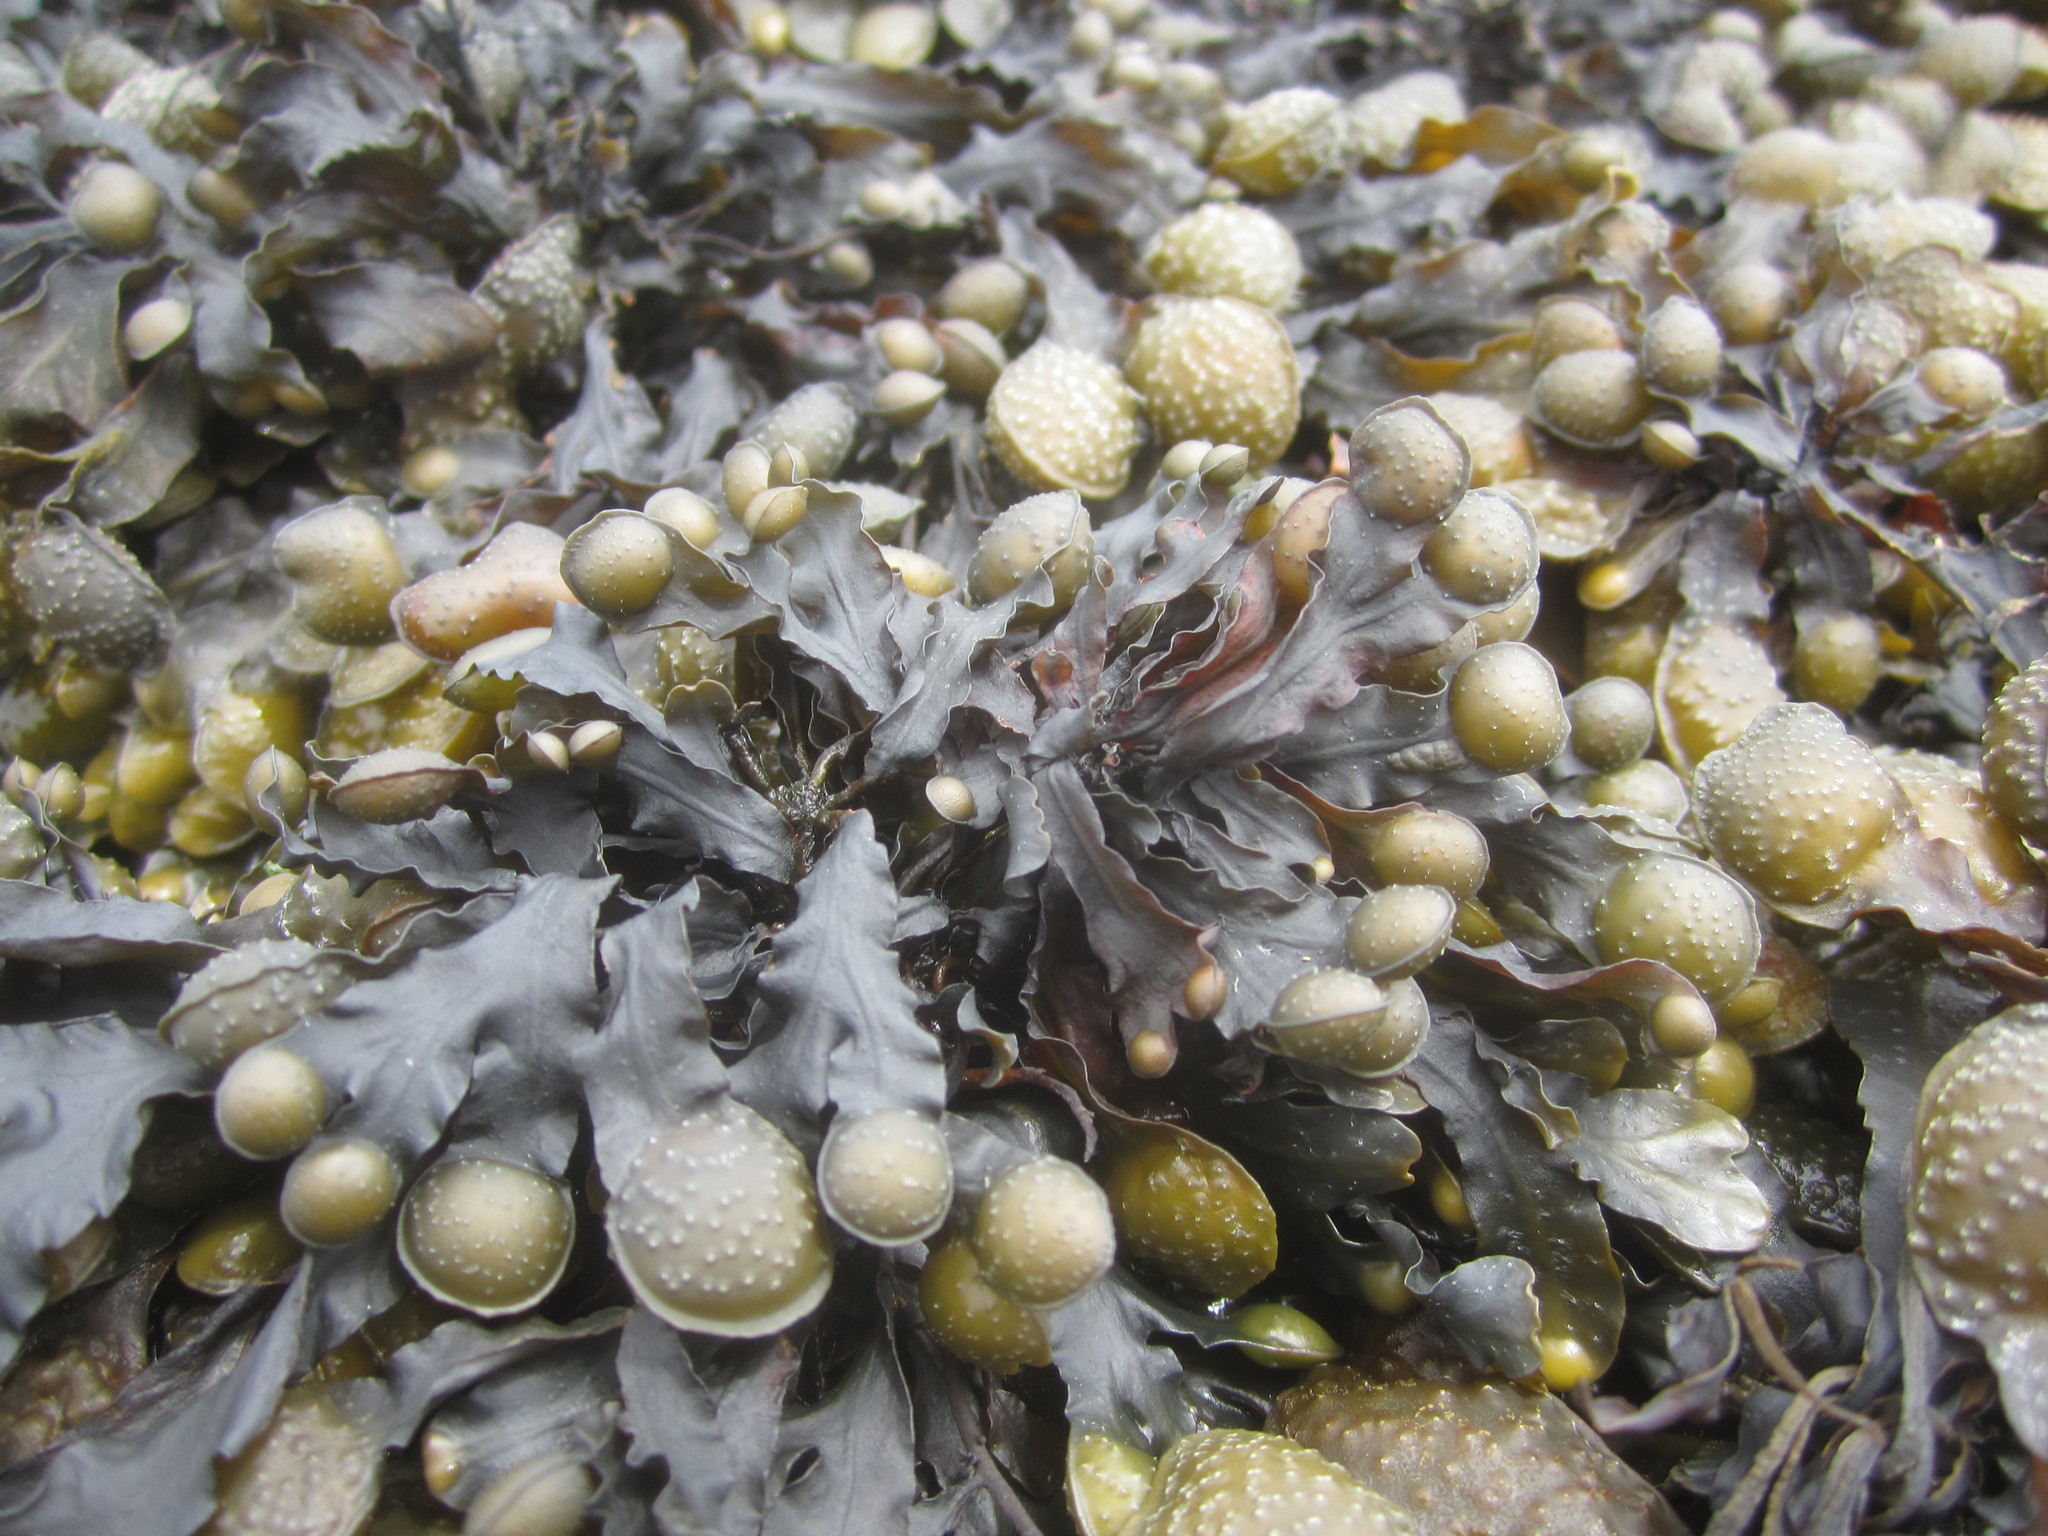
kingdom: Chromista
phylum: Ochrophyta
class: Phaeophyceae
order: Fucales
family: Fucaceae
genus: Fucus
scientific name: Fucus spiralis
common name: Spiral wrack
